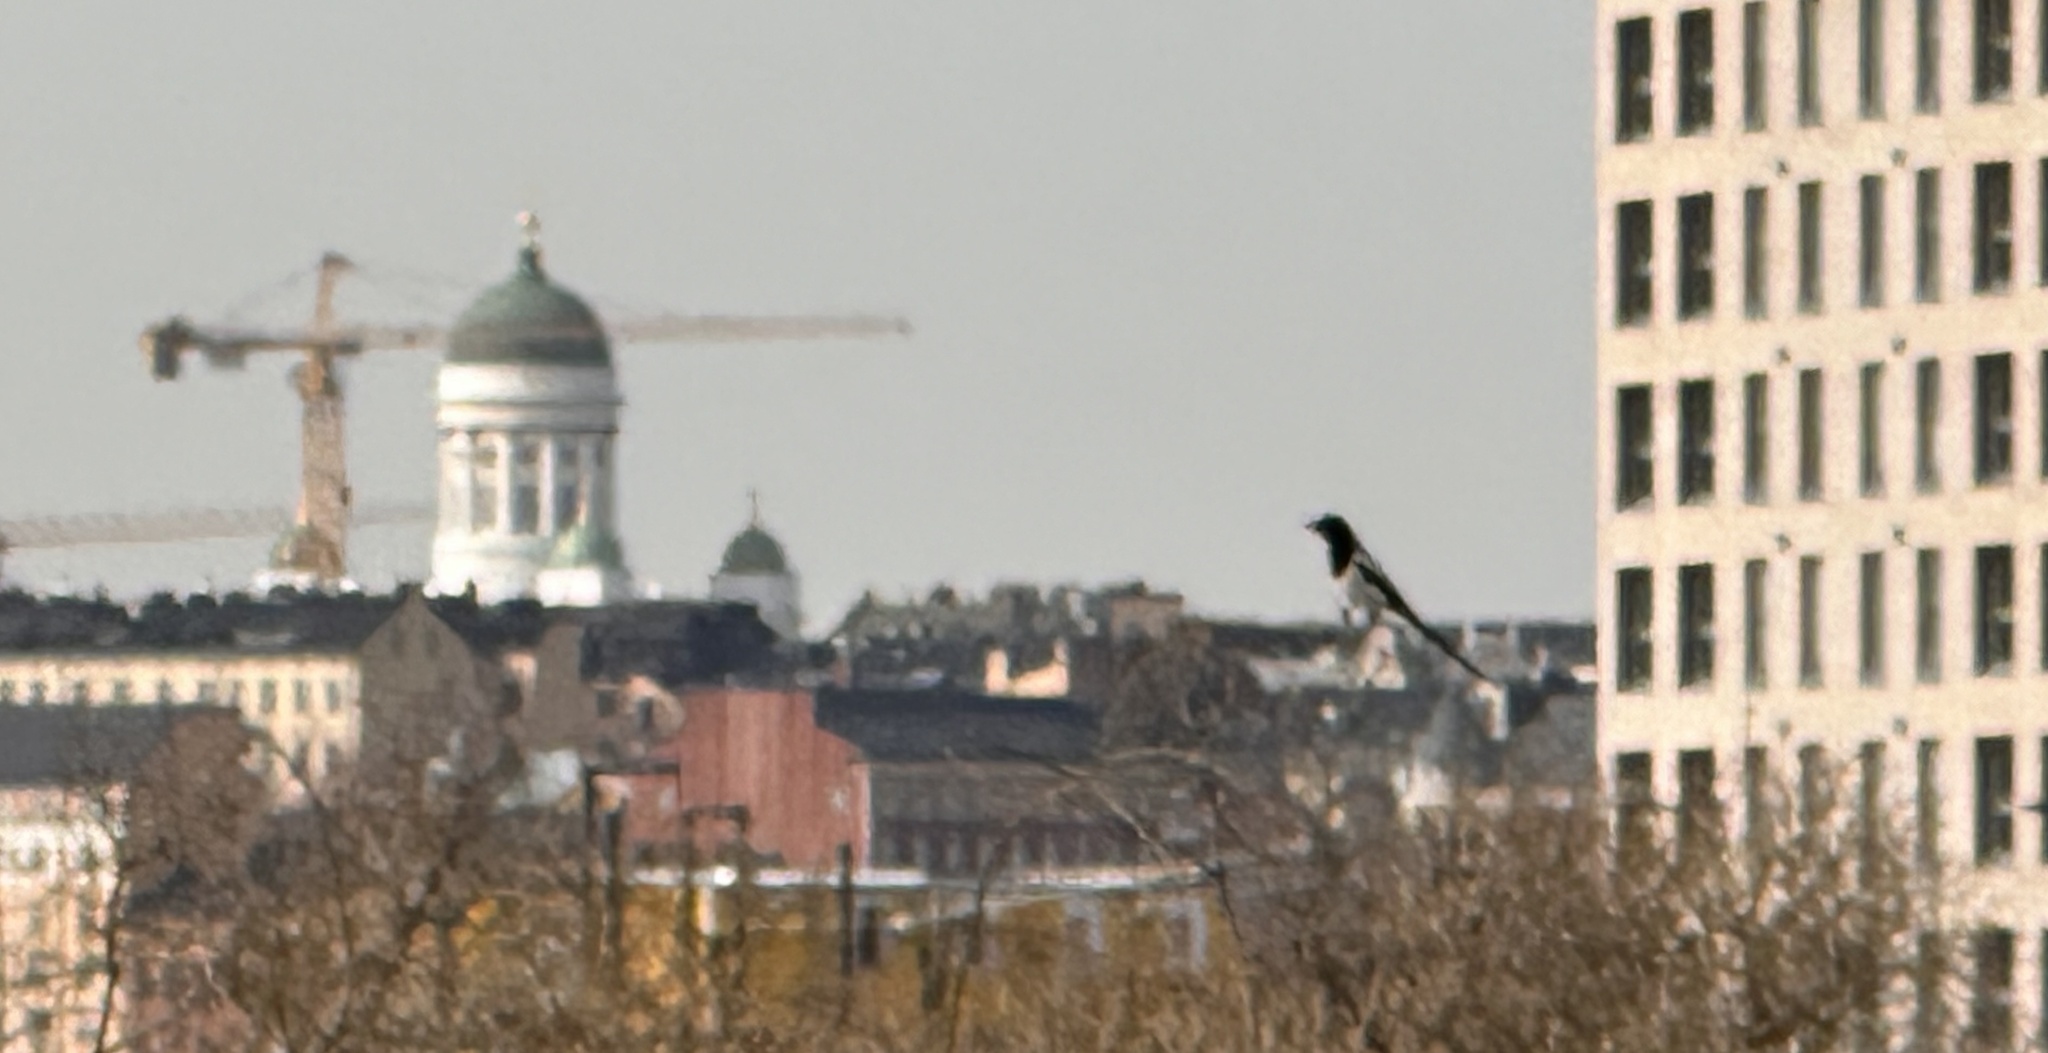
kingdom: Animalia
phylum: Chordata
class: Aves
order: Passeriformes
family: Corvidae
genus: Pica
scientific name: Pica pica
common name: Eurasian magpie
